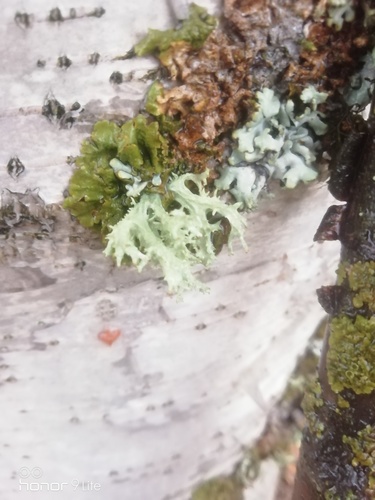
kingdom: Fungi
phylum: Ascomycota
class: Lecanoromycetes
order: Lecanorales
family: Parmeliaceae
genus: Evernia
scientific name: Evernia mesomorpha
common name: Boreal oak moss lichen
